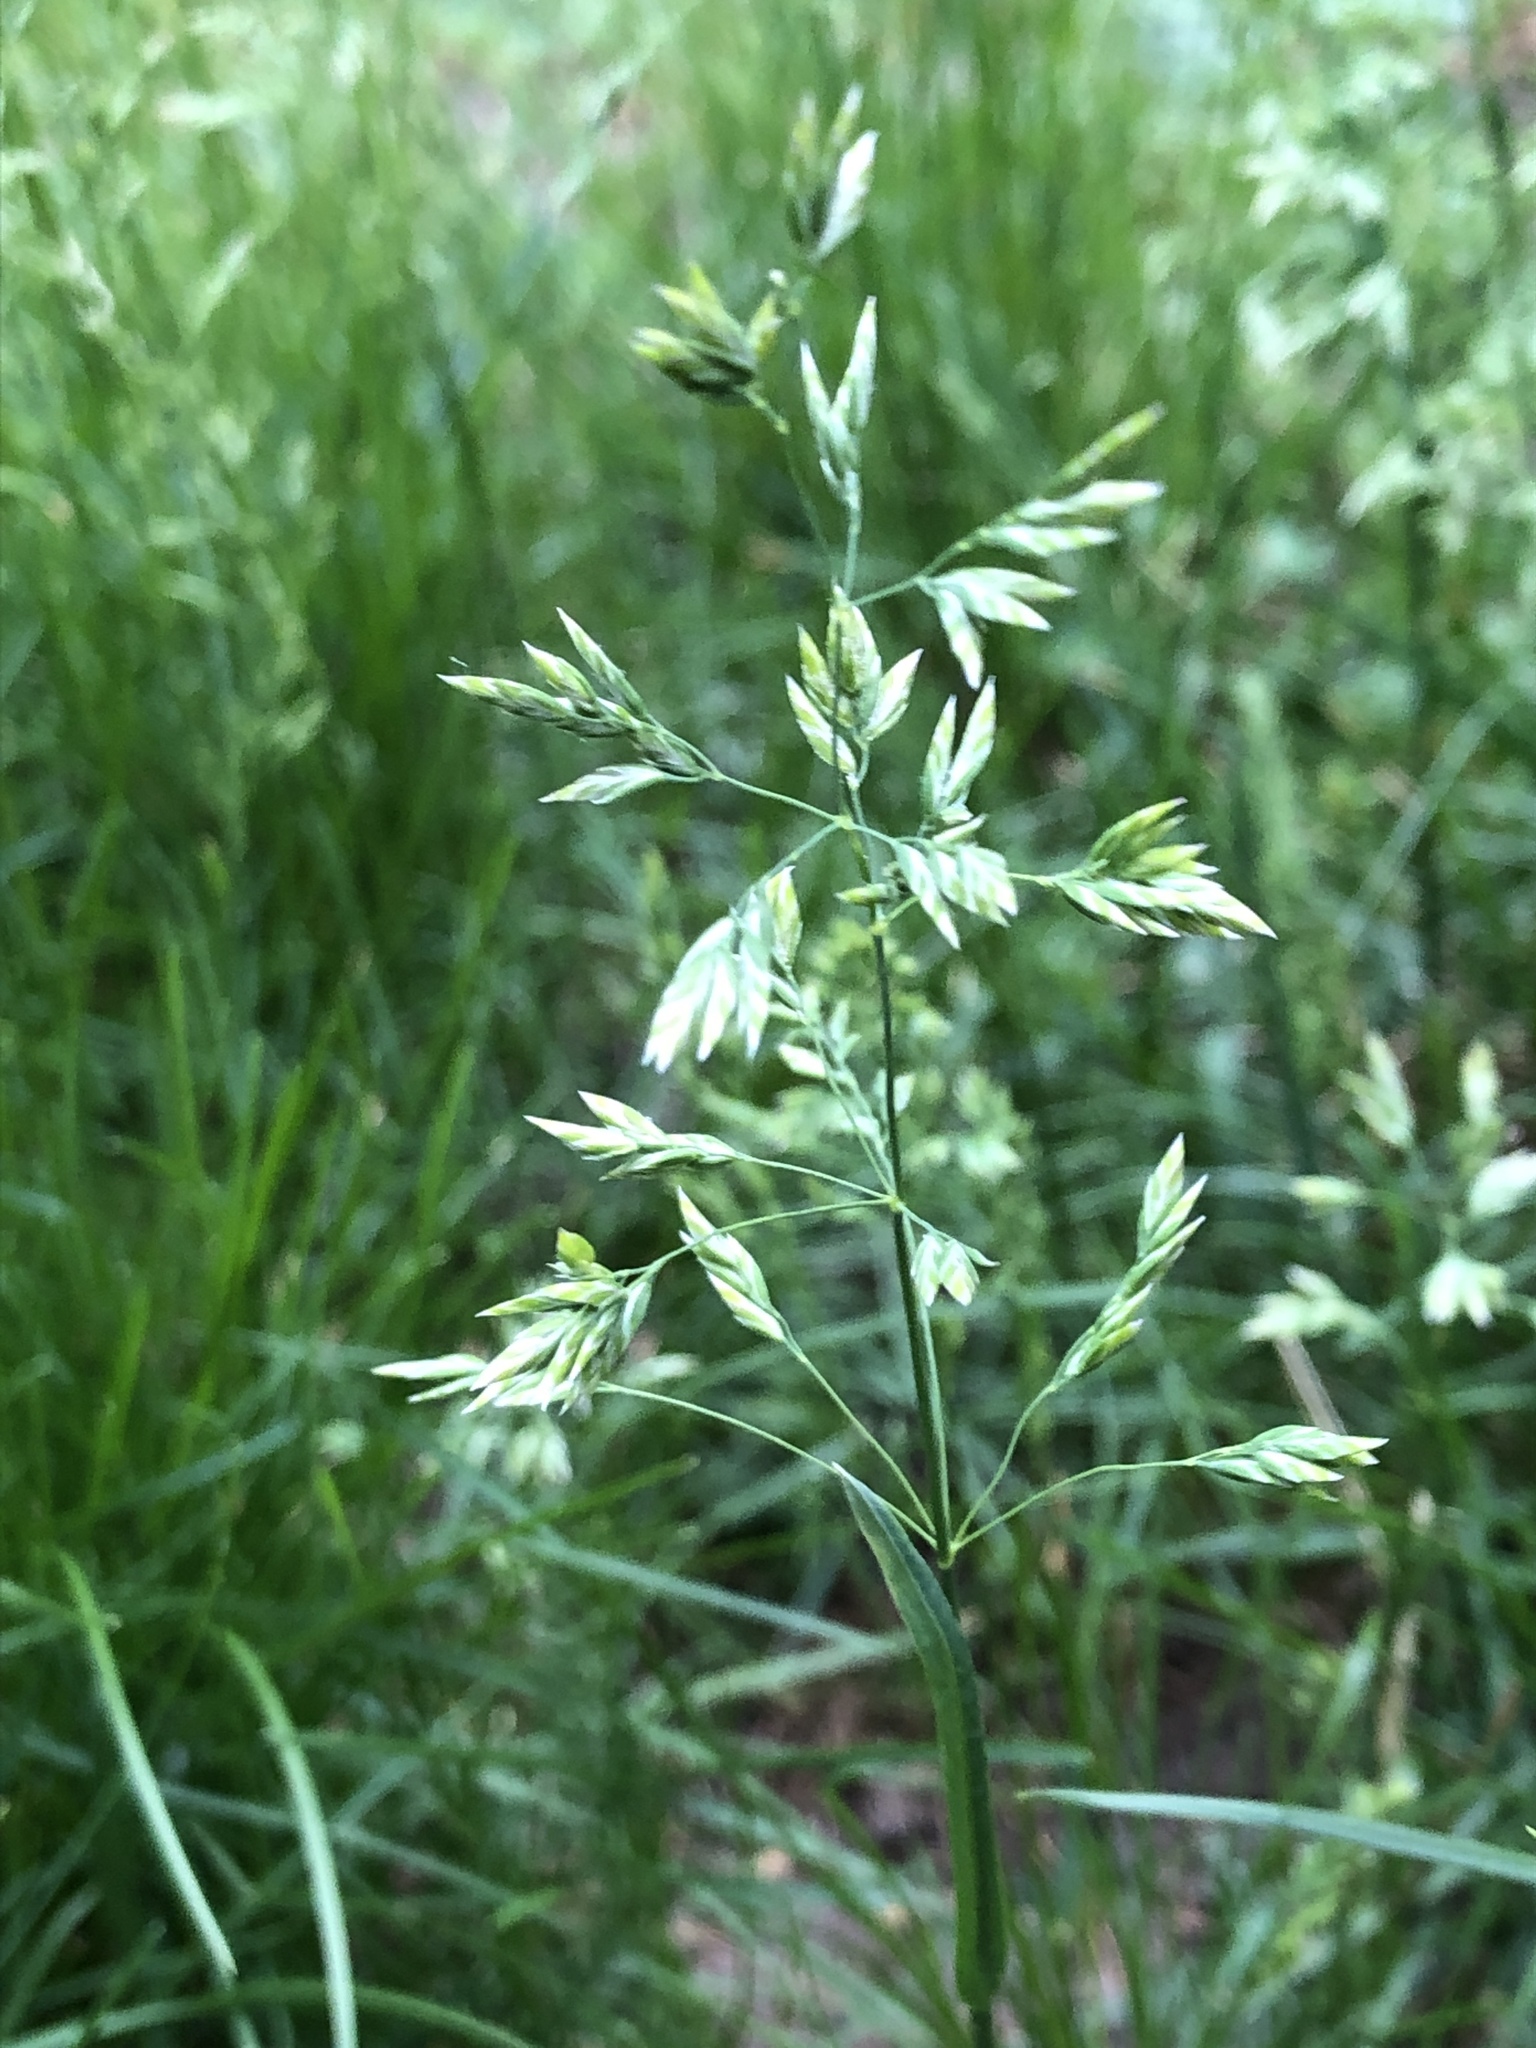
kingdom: Plantae
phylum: Tracheophyta
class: Liliopsida
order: Poales
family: Poaceae
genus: Poa
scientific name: Poa annua
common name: Annual bluegrass
